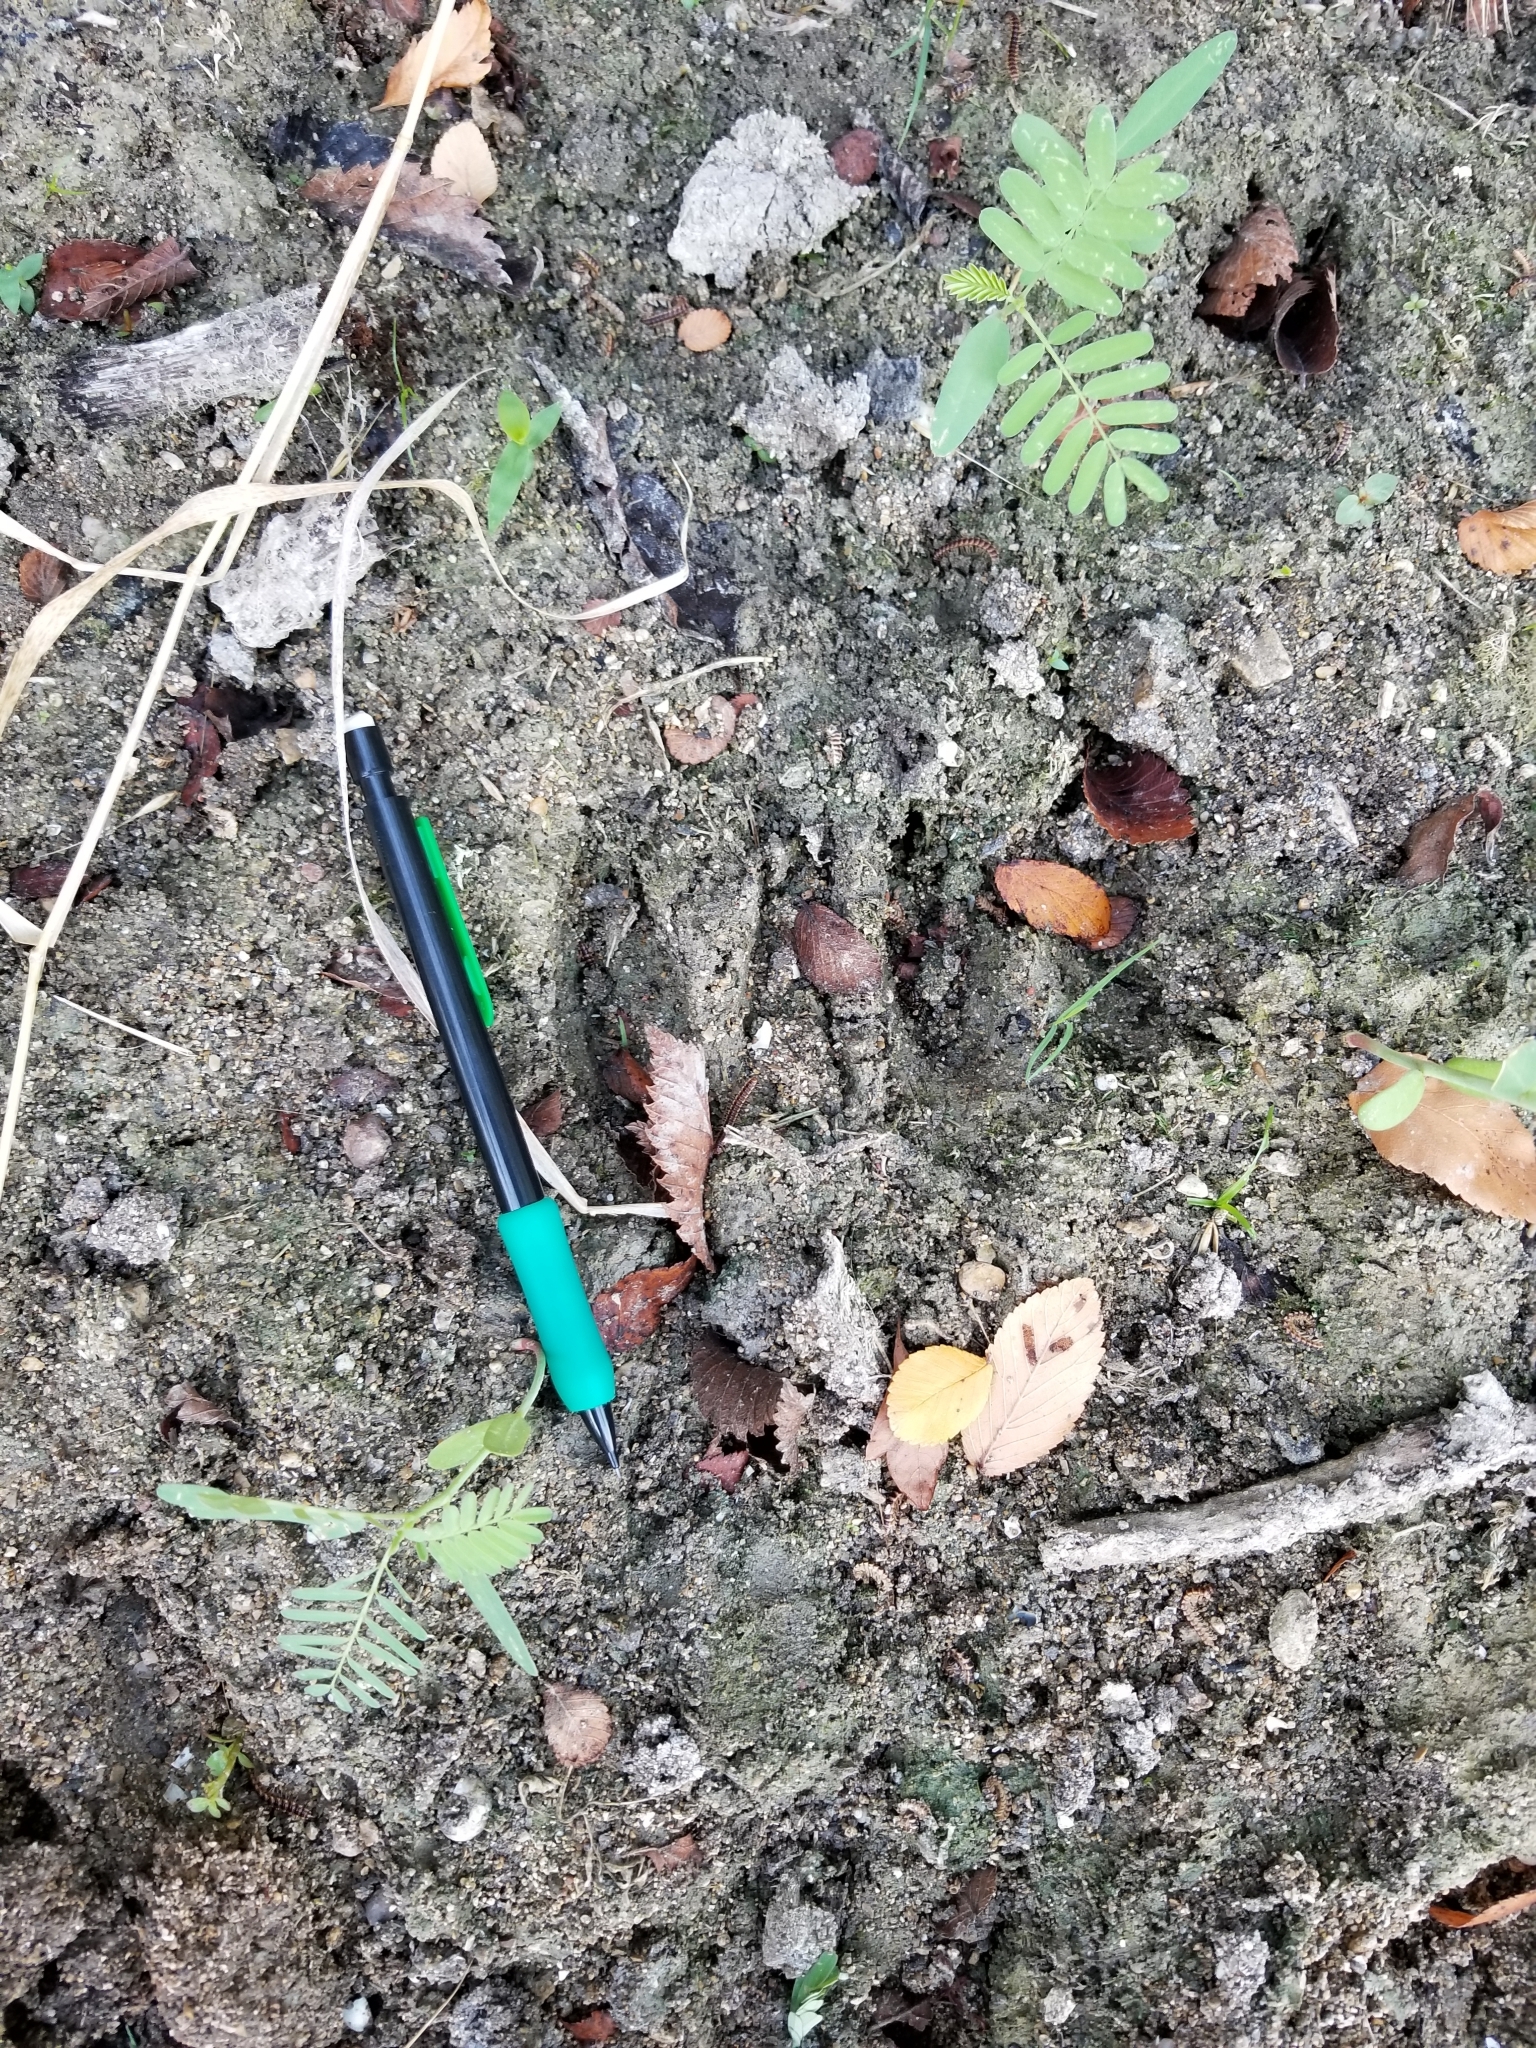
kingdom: Animalia
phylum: Chordata
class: Mammalia
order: Artiodactyla
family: Cervidae
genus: Odocoileus
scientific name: Odocoileus virginianus
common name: White-tailed deer
